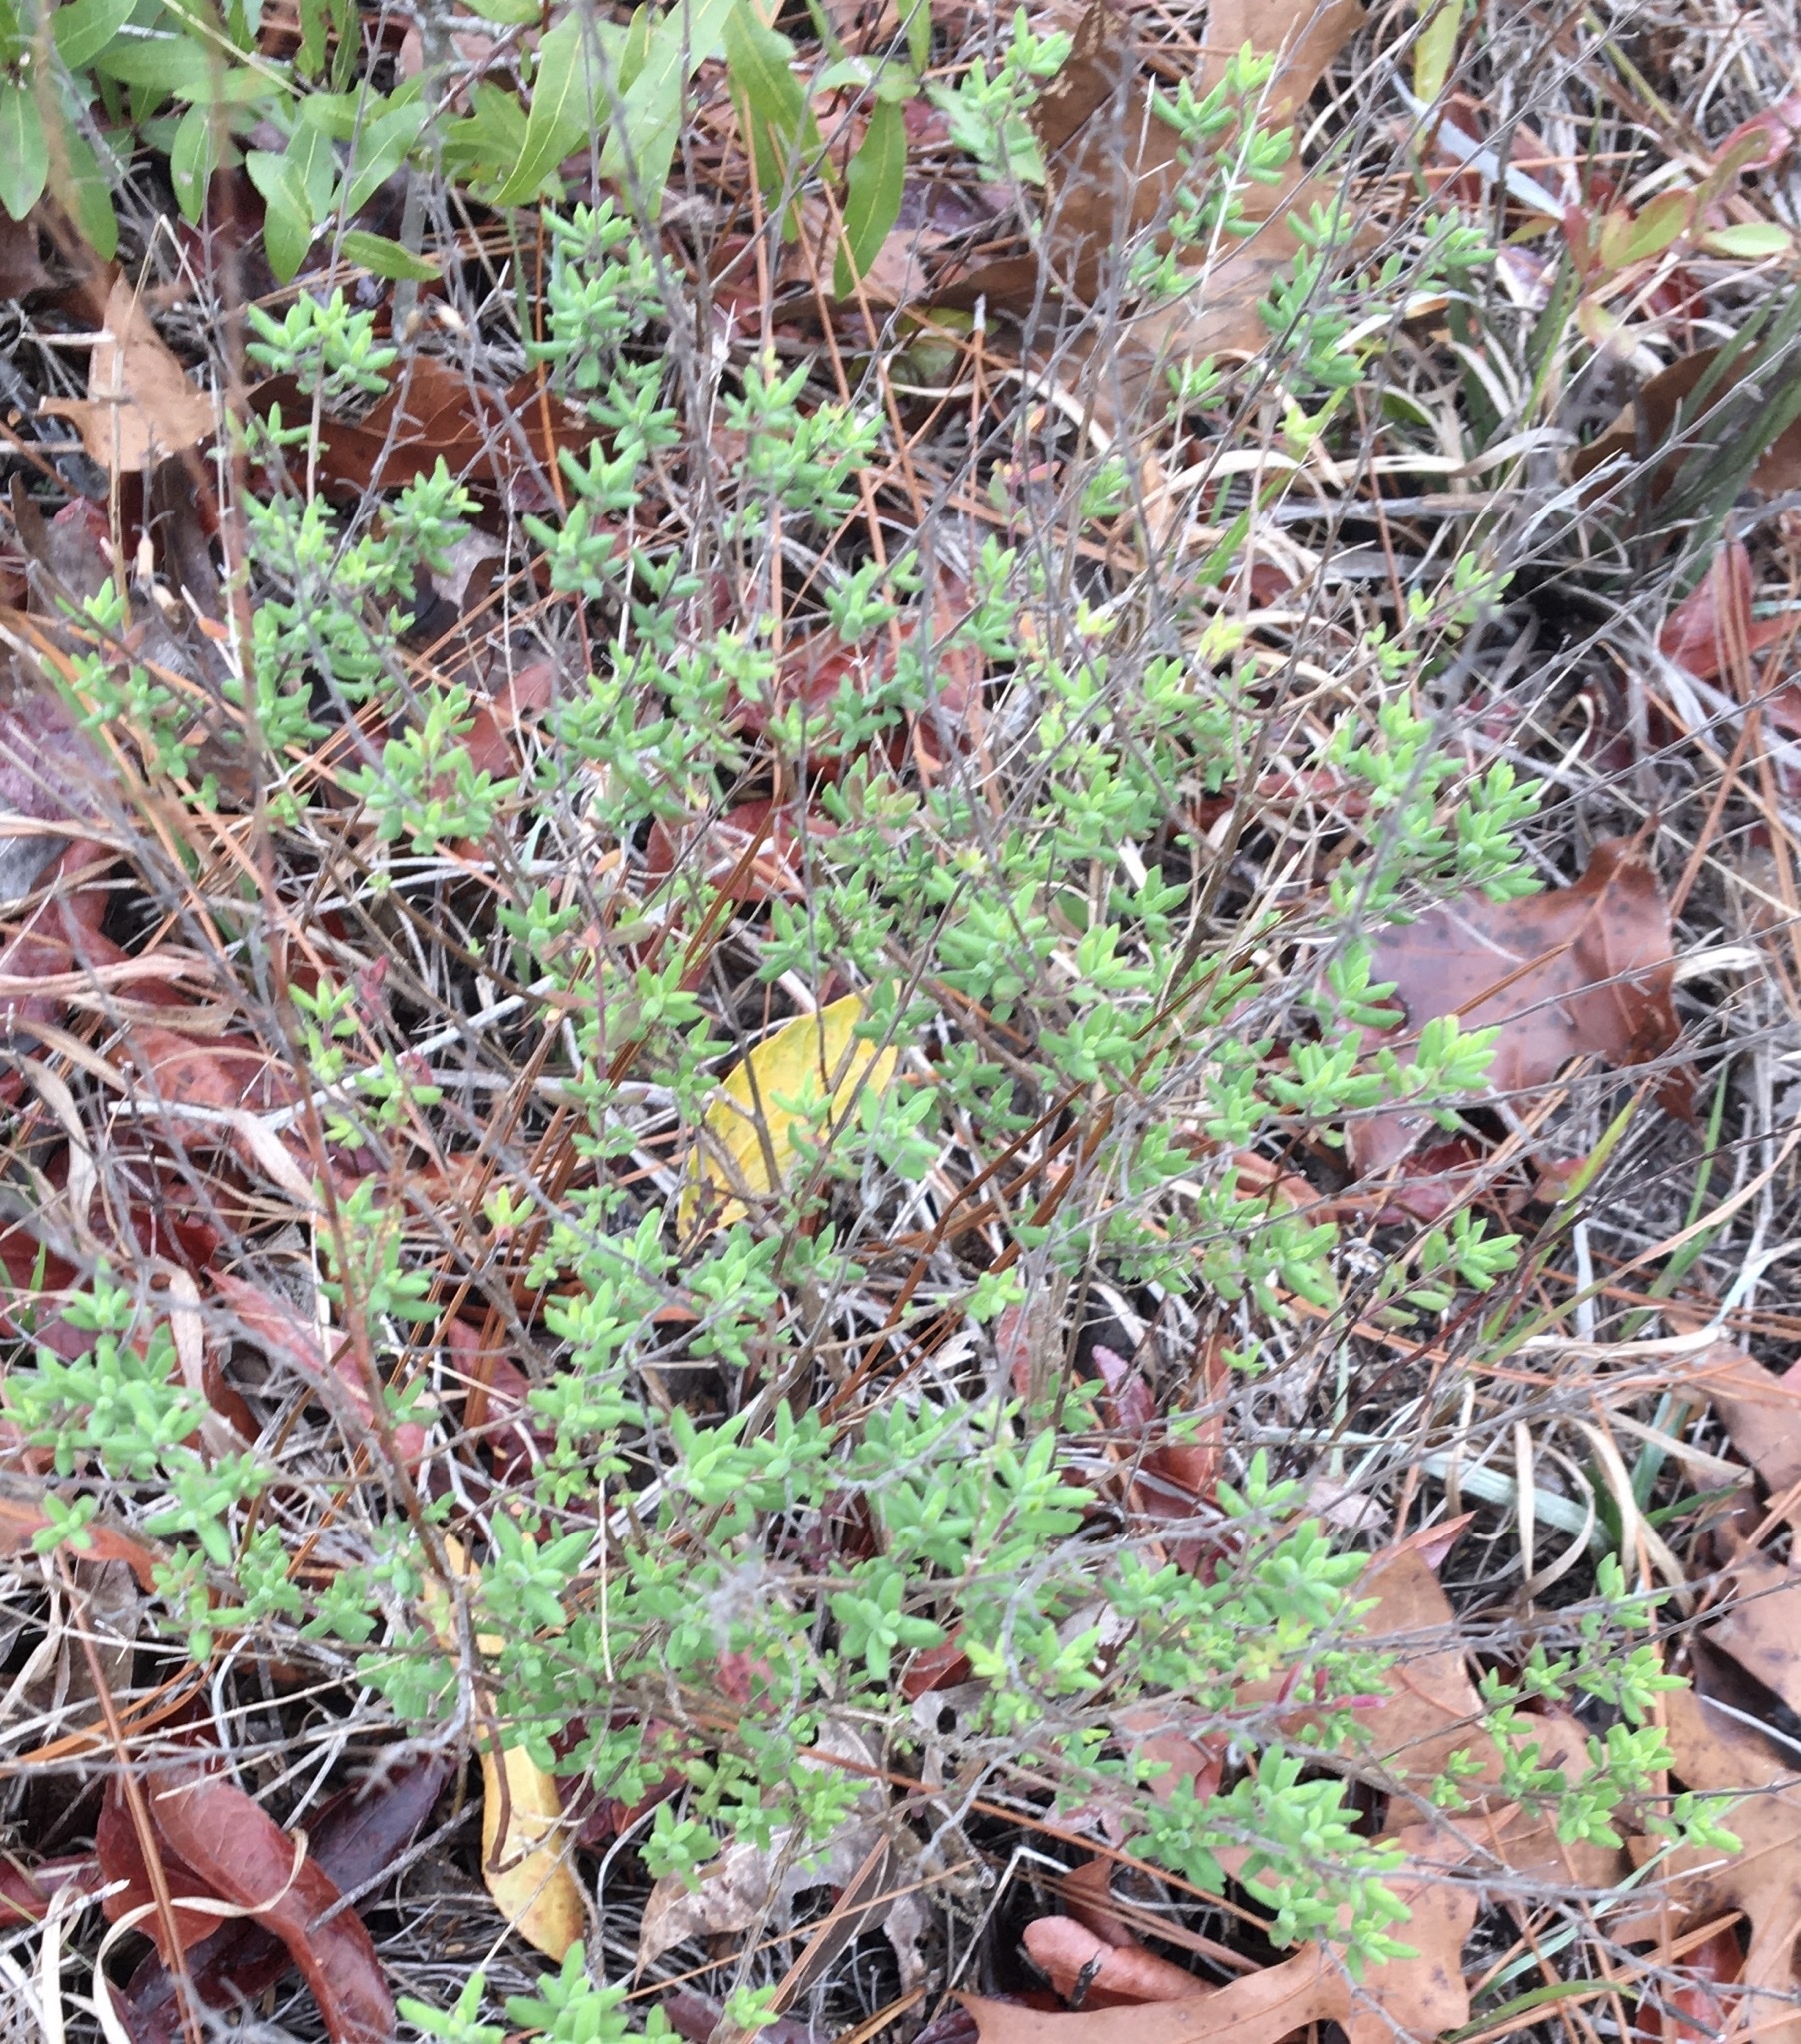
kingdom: Plantae
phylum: Tracheophyta
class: Magnoliopsida
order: Lamiales
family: Lamiaceae
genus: Clinopodium
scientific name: Clinopodium dentatum
